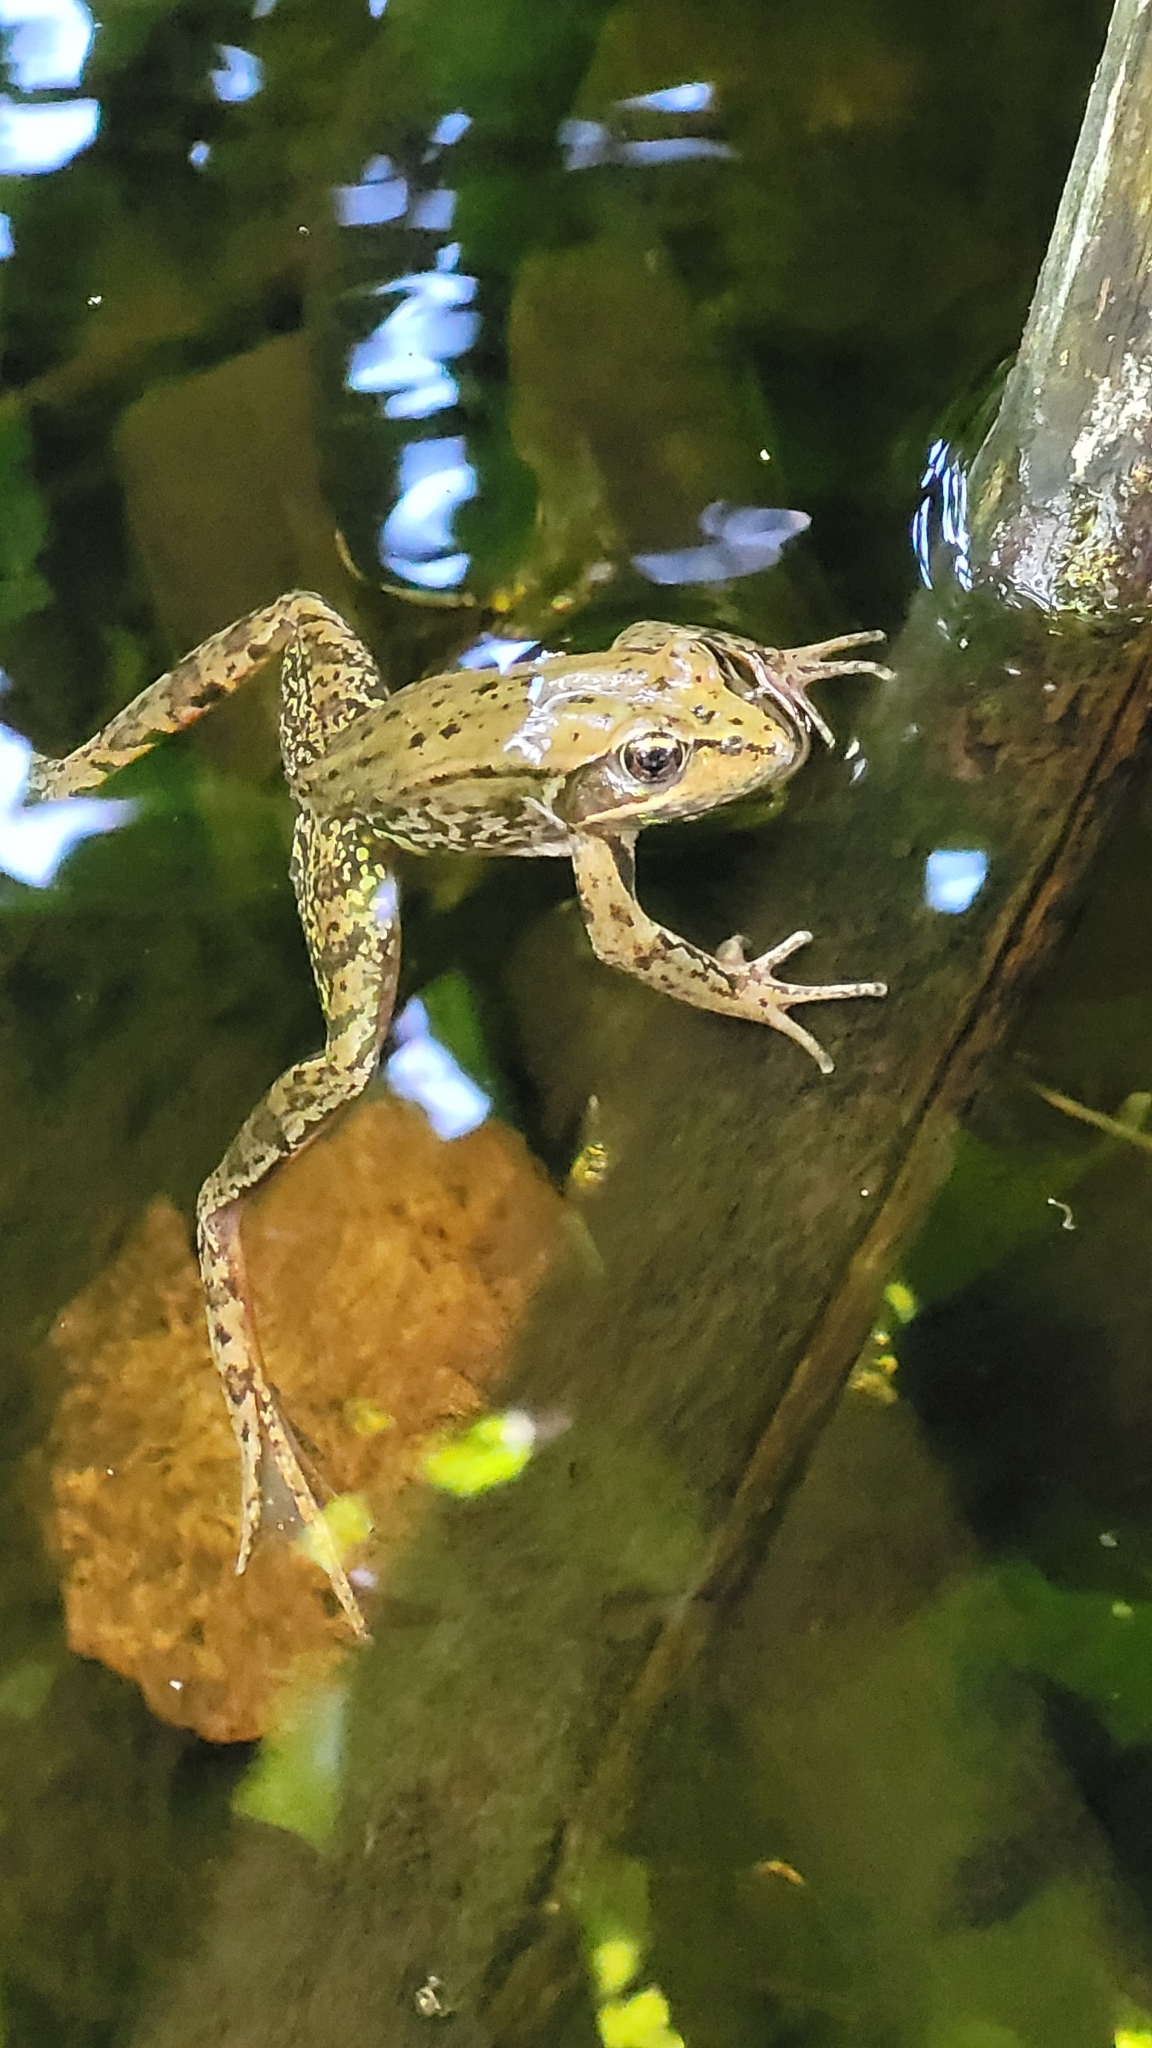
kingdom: Animalia
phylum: Chordata
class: Amphibia
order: Anura
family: Ranidae
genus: Rana
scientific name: Rana aurora
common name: Red-legged frog
